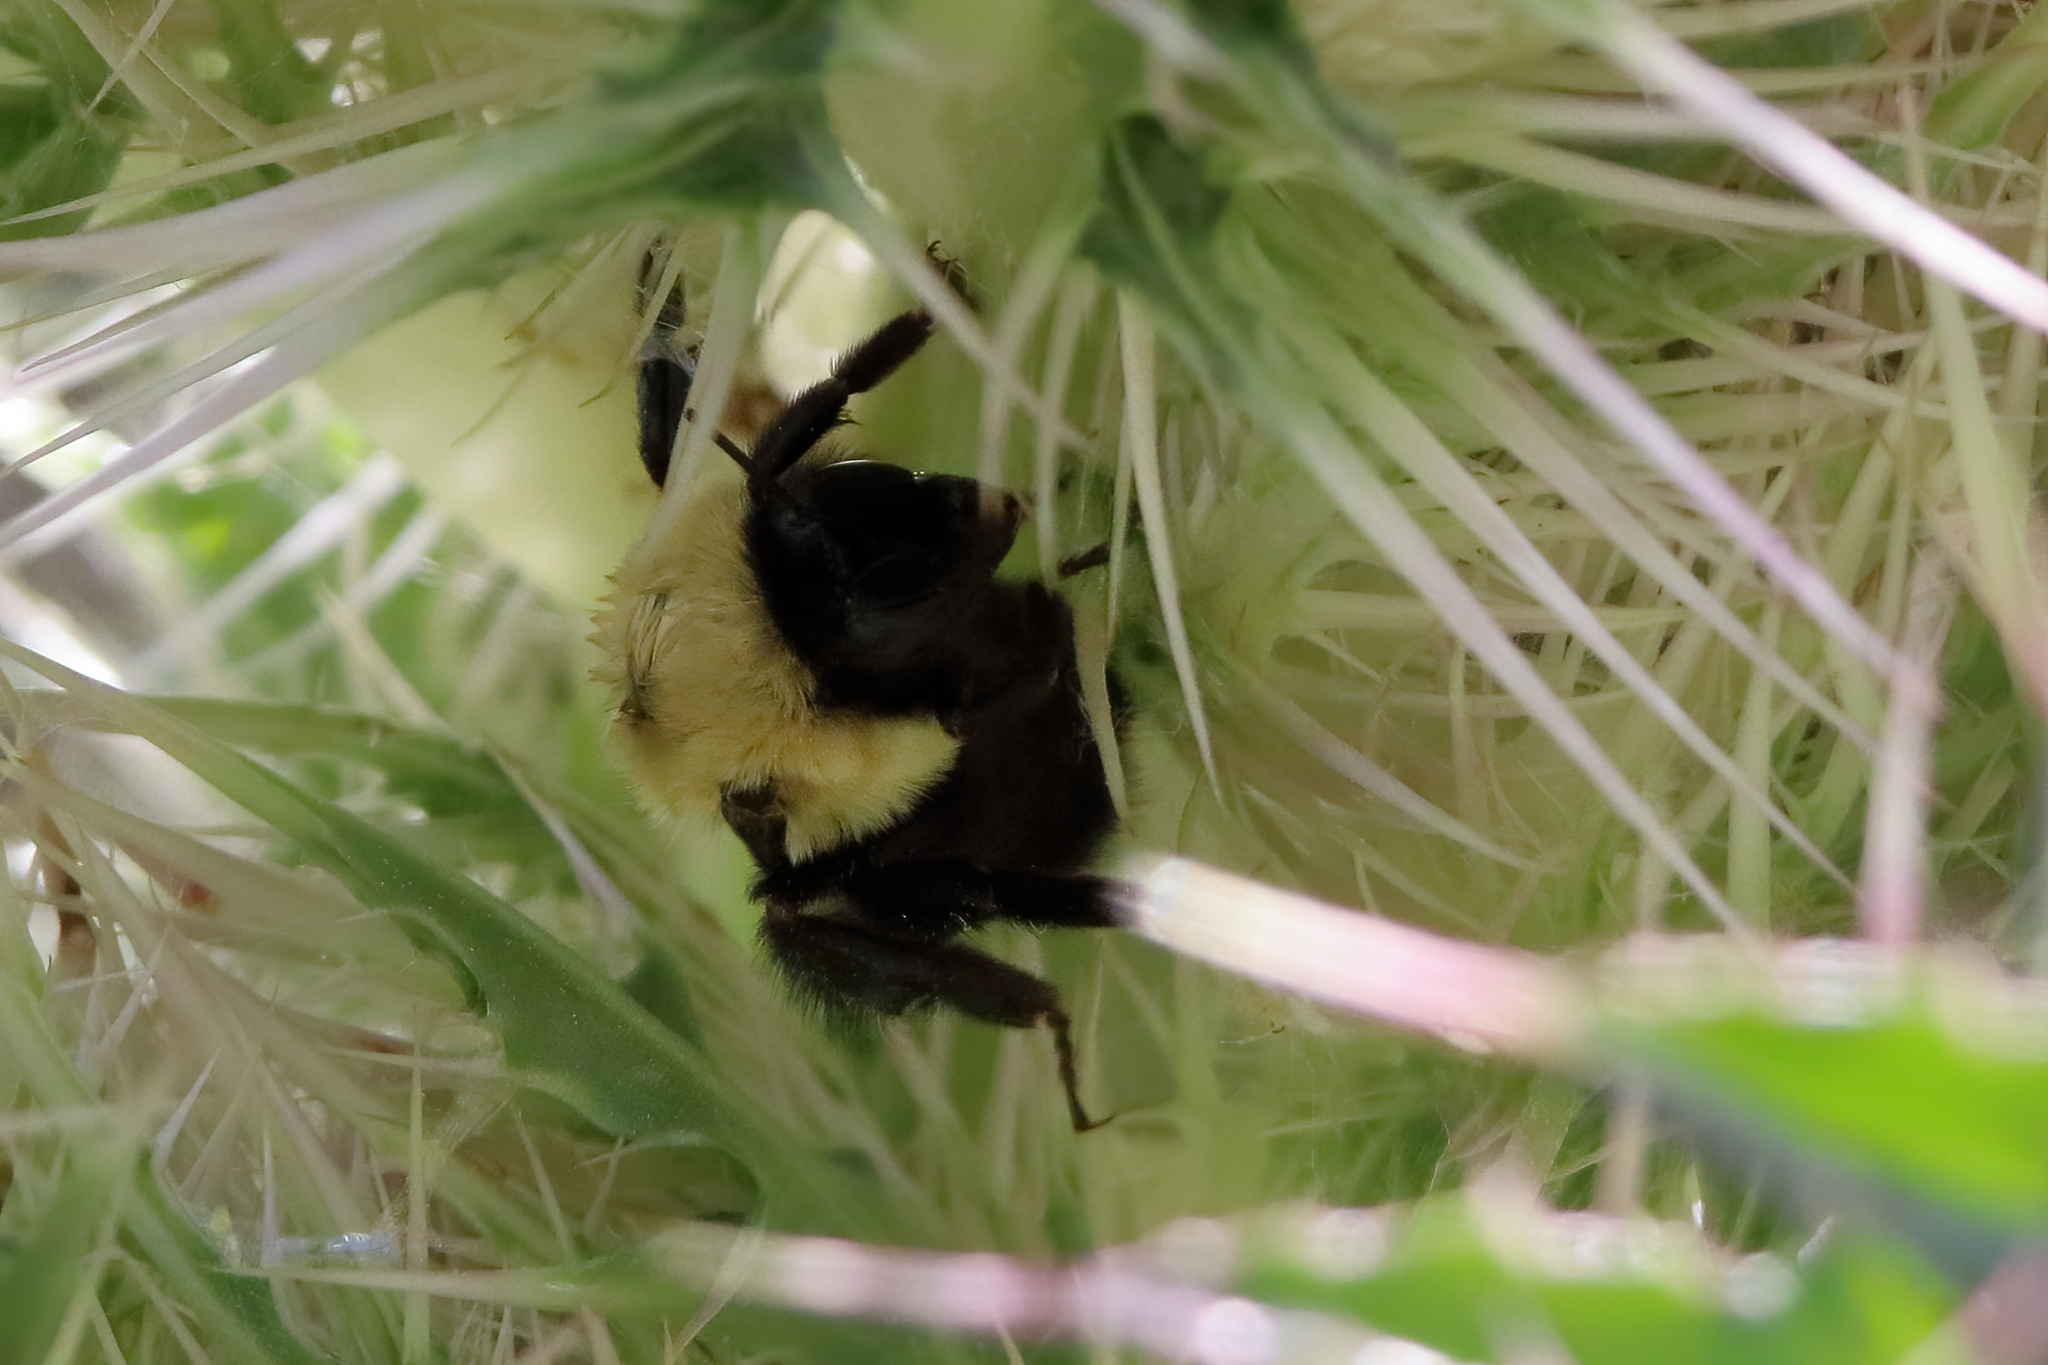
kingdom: Animalia
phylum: Arthropoda
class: Insecta
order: Hymenoptera
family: Apidae
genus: Bombus
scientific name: Bombus griseocollis
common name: Brown-belted bumble bee
